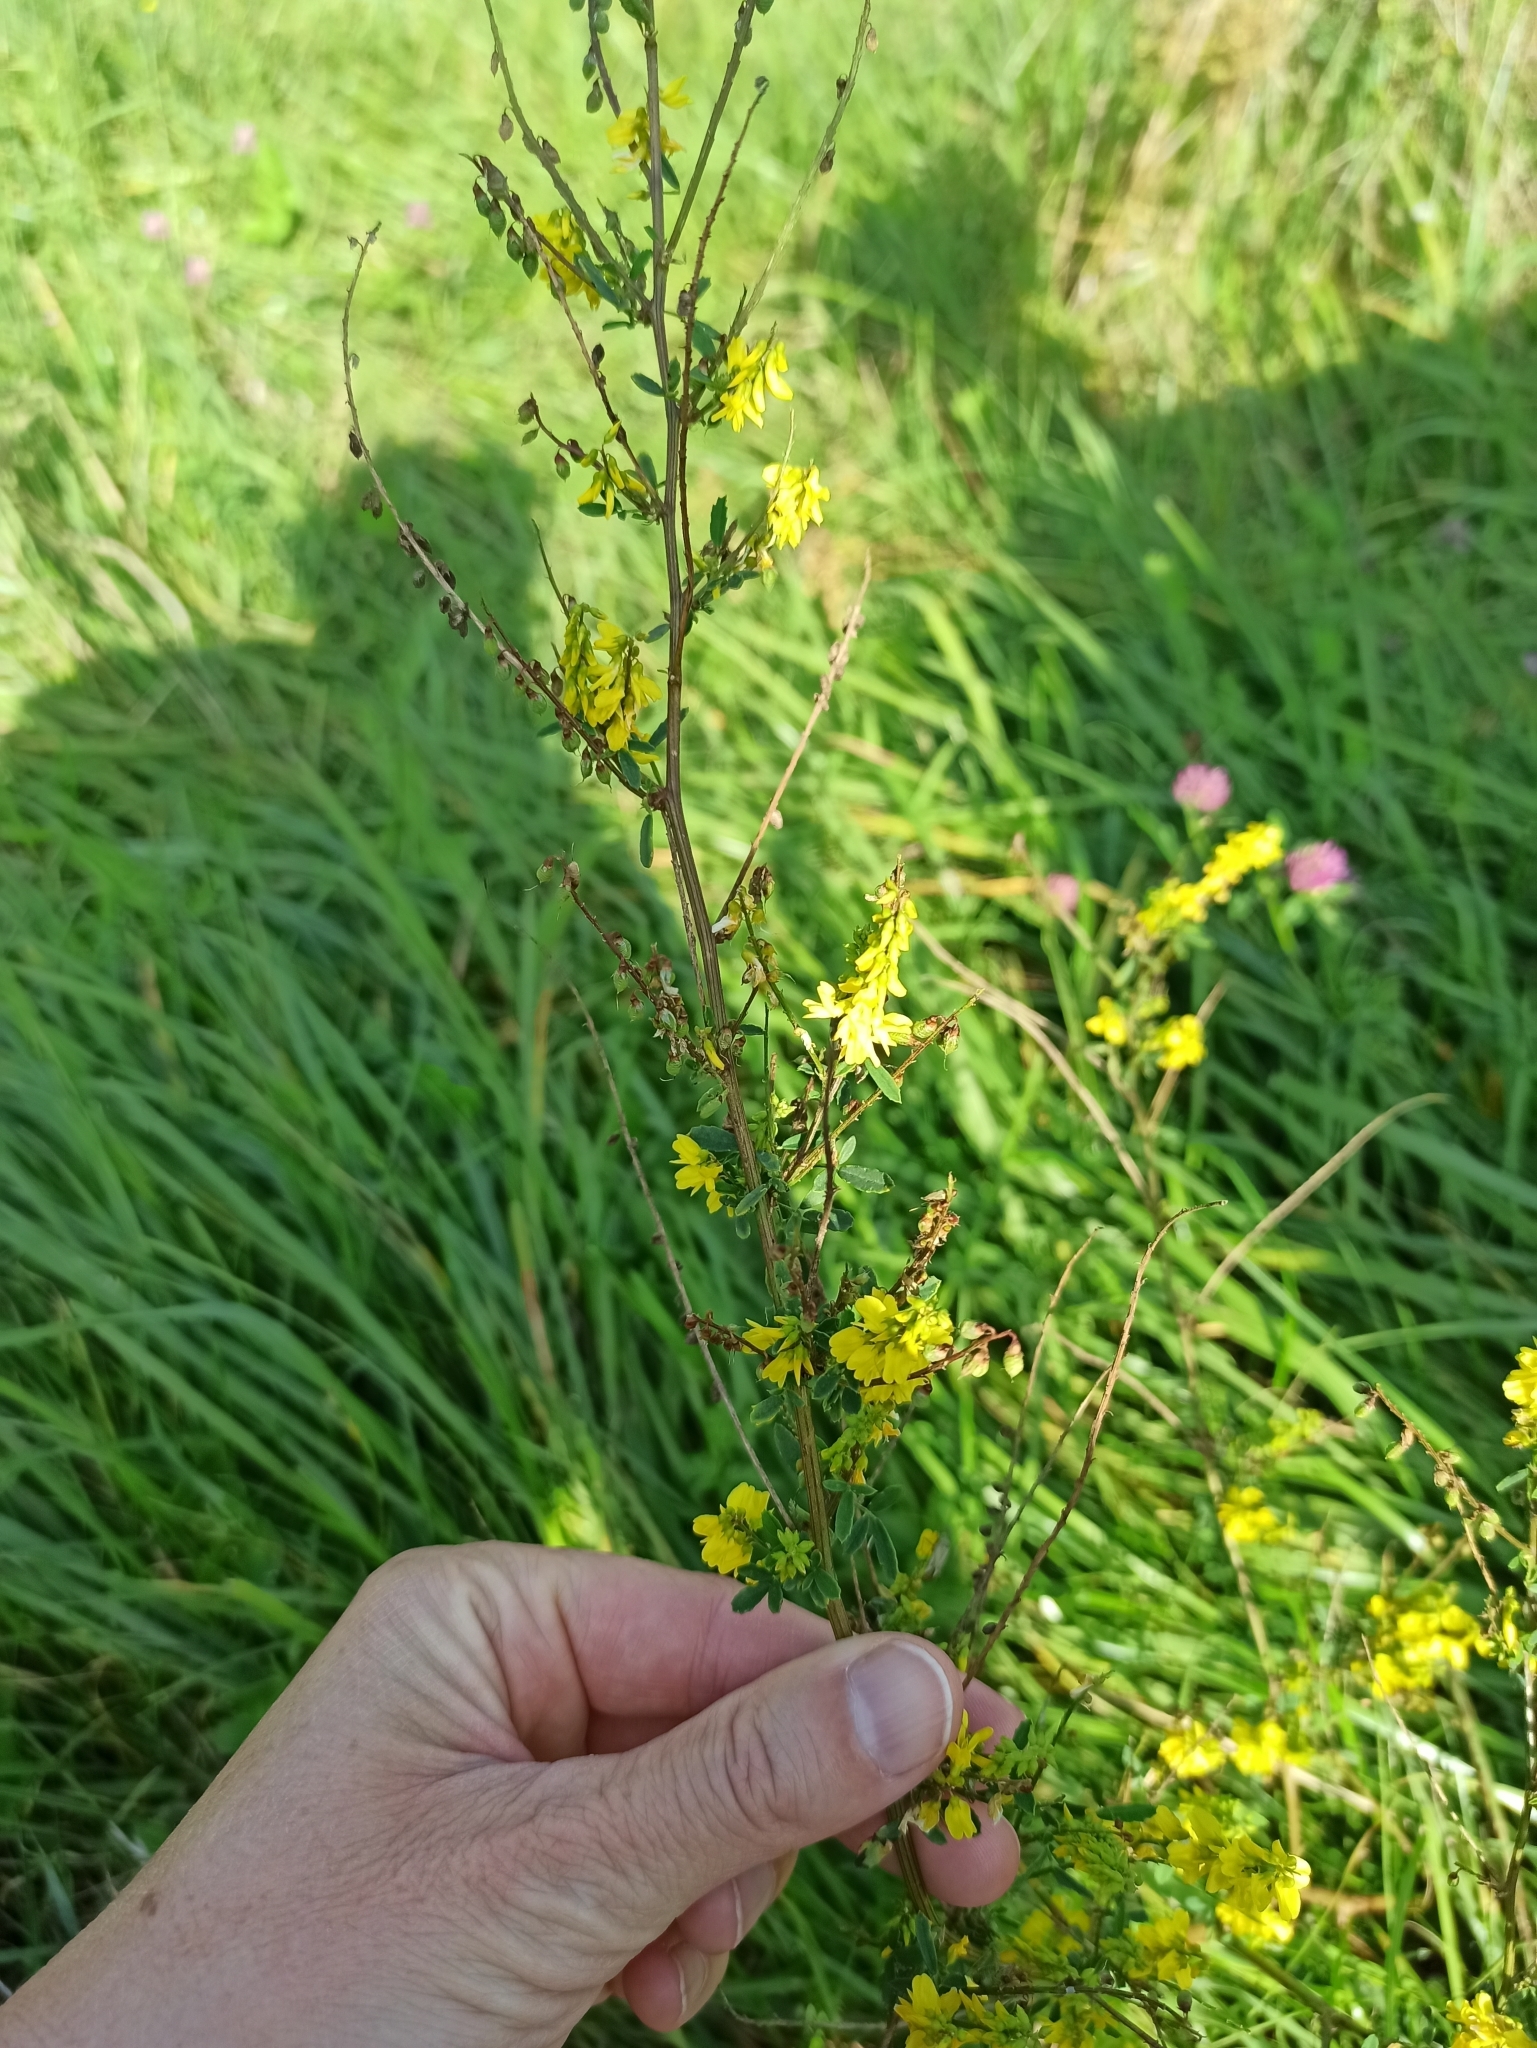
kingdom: Plantae
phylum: Tracheophyta
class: Magnoliopsida
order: Fabales
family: Fabaceae
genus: Melilotus
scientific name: Melilotus officinalis
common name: Sweetclover
